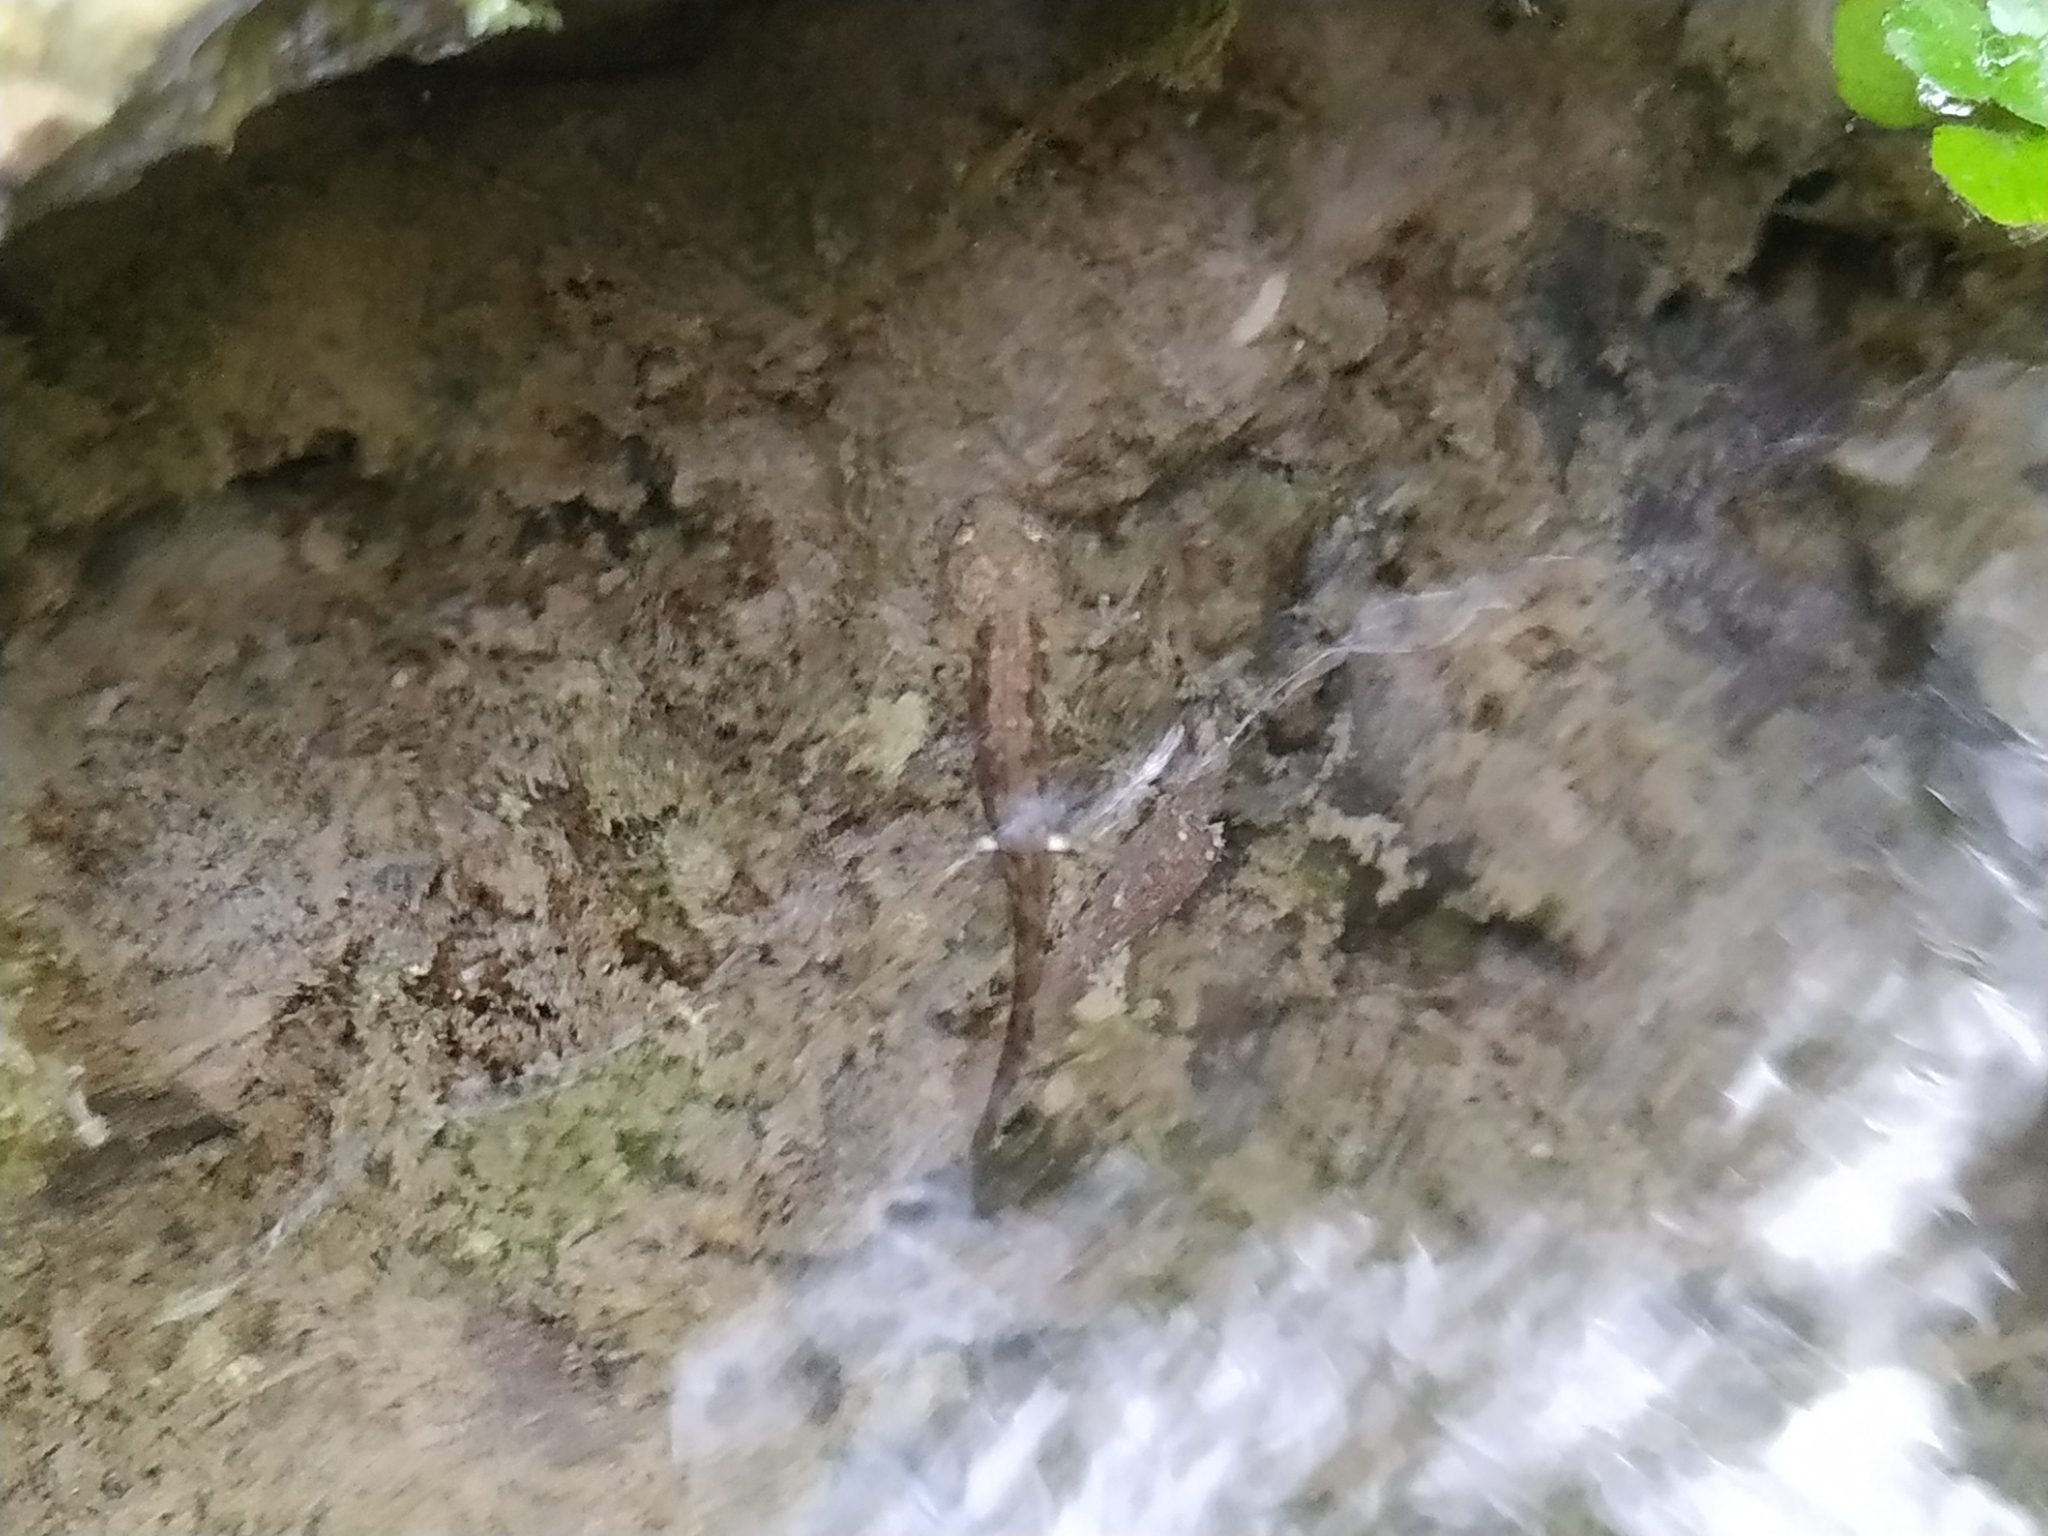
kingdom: Animalia
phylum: Chordata
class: Amphibia
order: Caudata
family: Salamandridae
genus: Salamandra
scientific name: Salamandra salamandra
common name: Fire salamander
